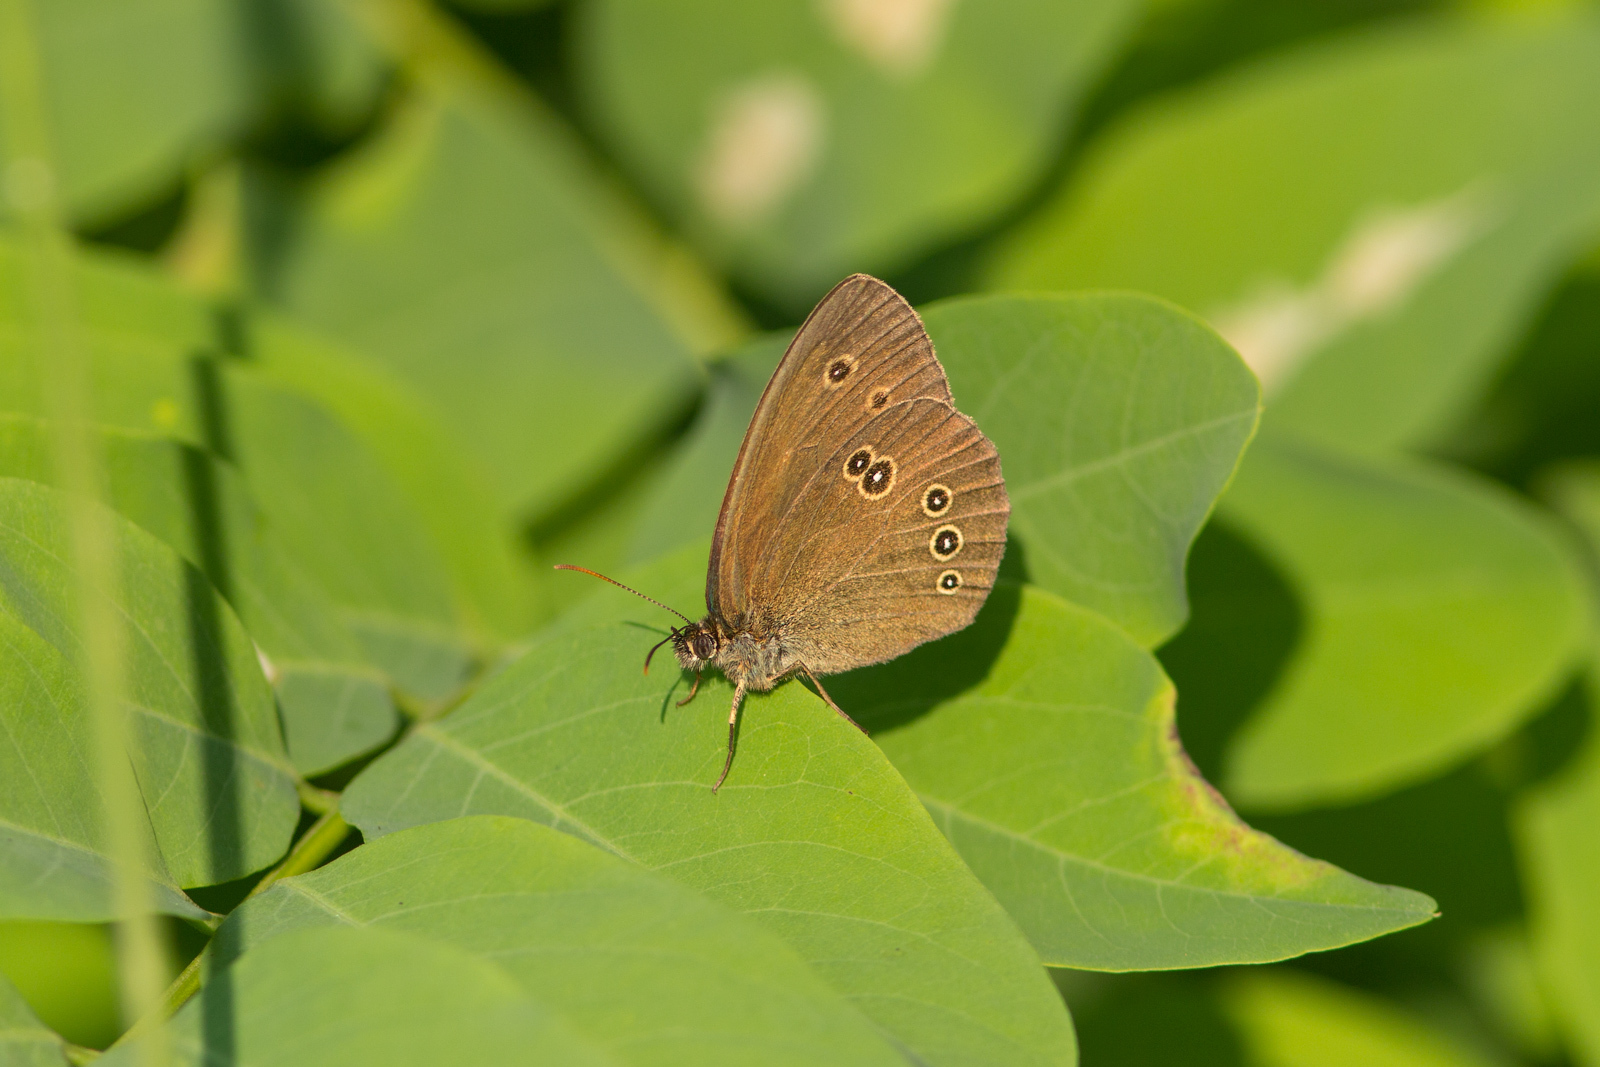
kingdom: Animalia
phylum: Arthropoda
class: Insecta
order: Lepidoptera
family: Nymphalidae
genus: Aphantopus
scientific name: Aphantopus hyperantus
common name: Ringlet
